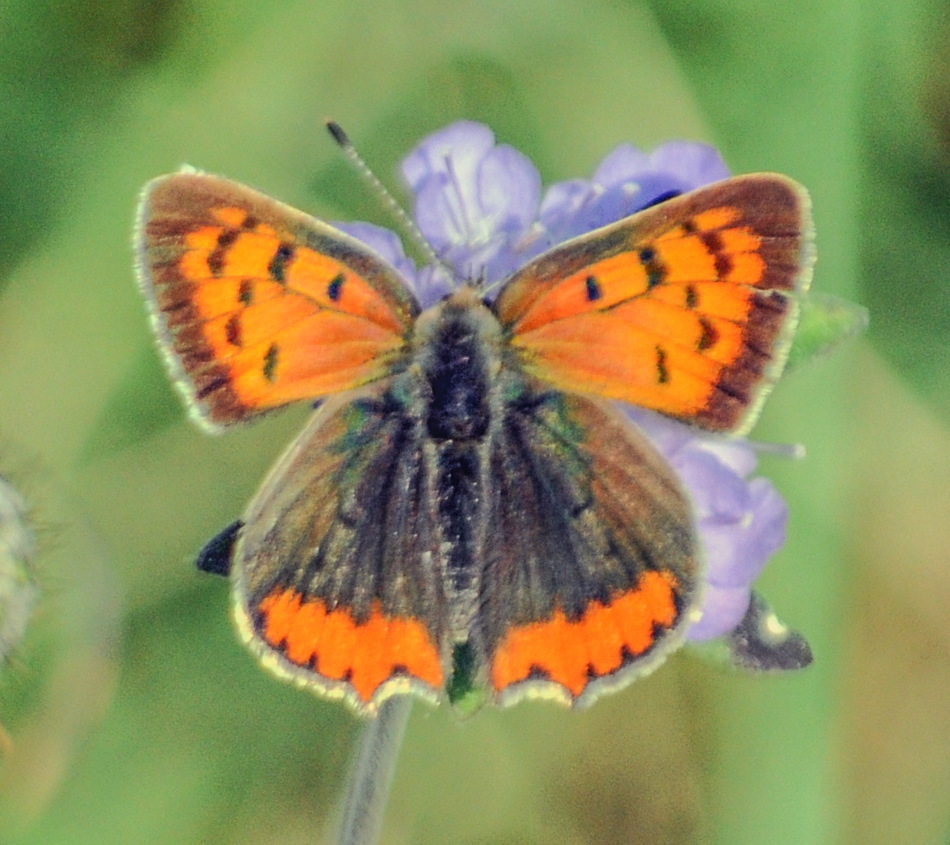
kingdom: Animalia
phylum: Arthropoda
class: Insecta
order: Lepidoptera
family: Lycaenidae
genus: Lycaena
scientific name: Lycaena phlaeas
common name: Small copper
